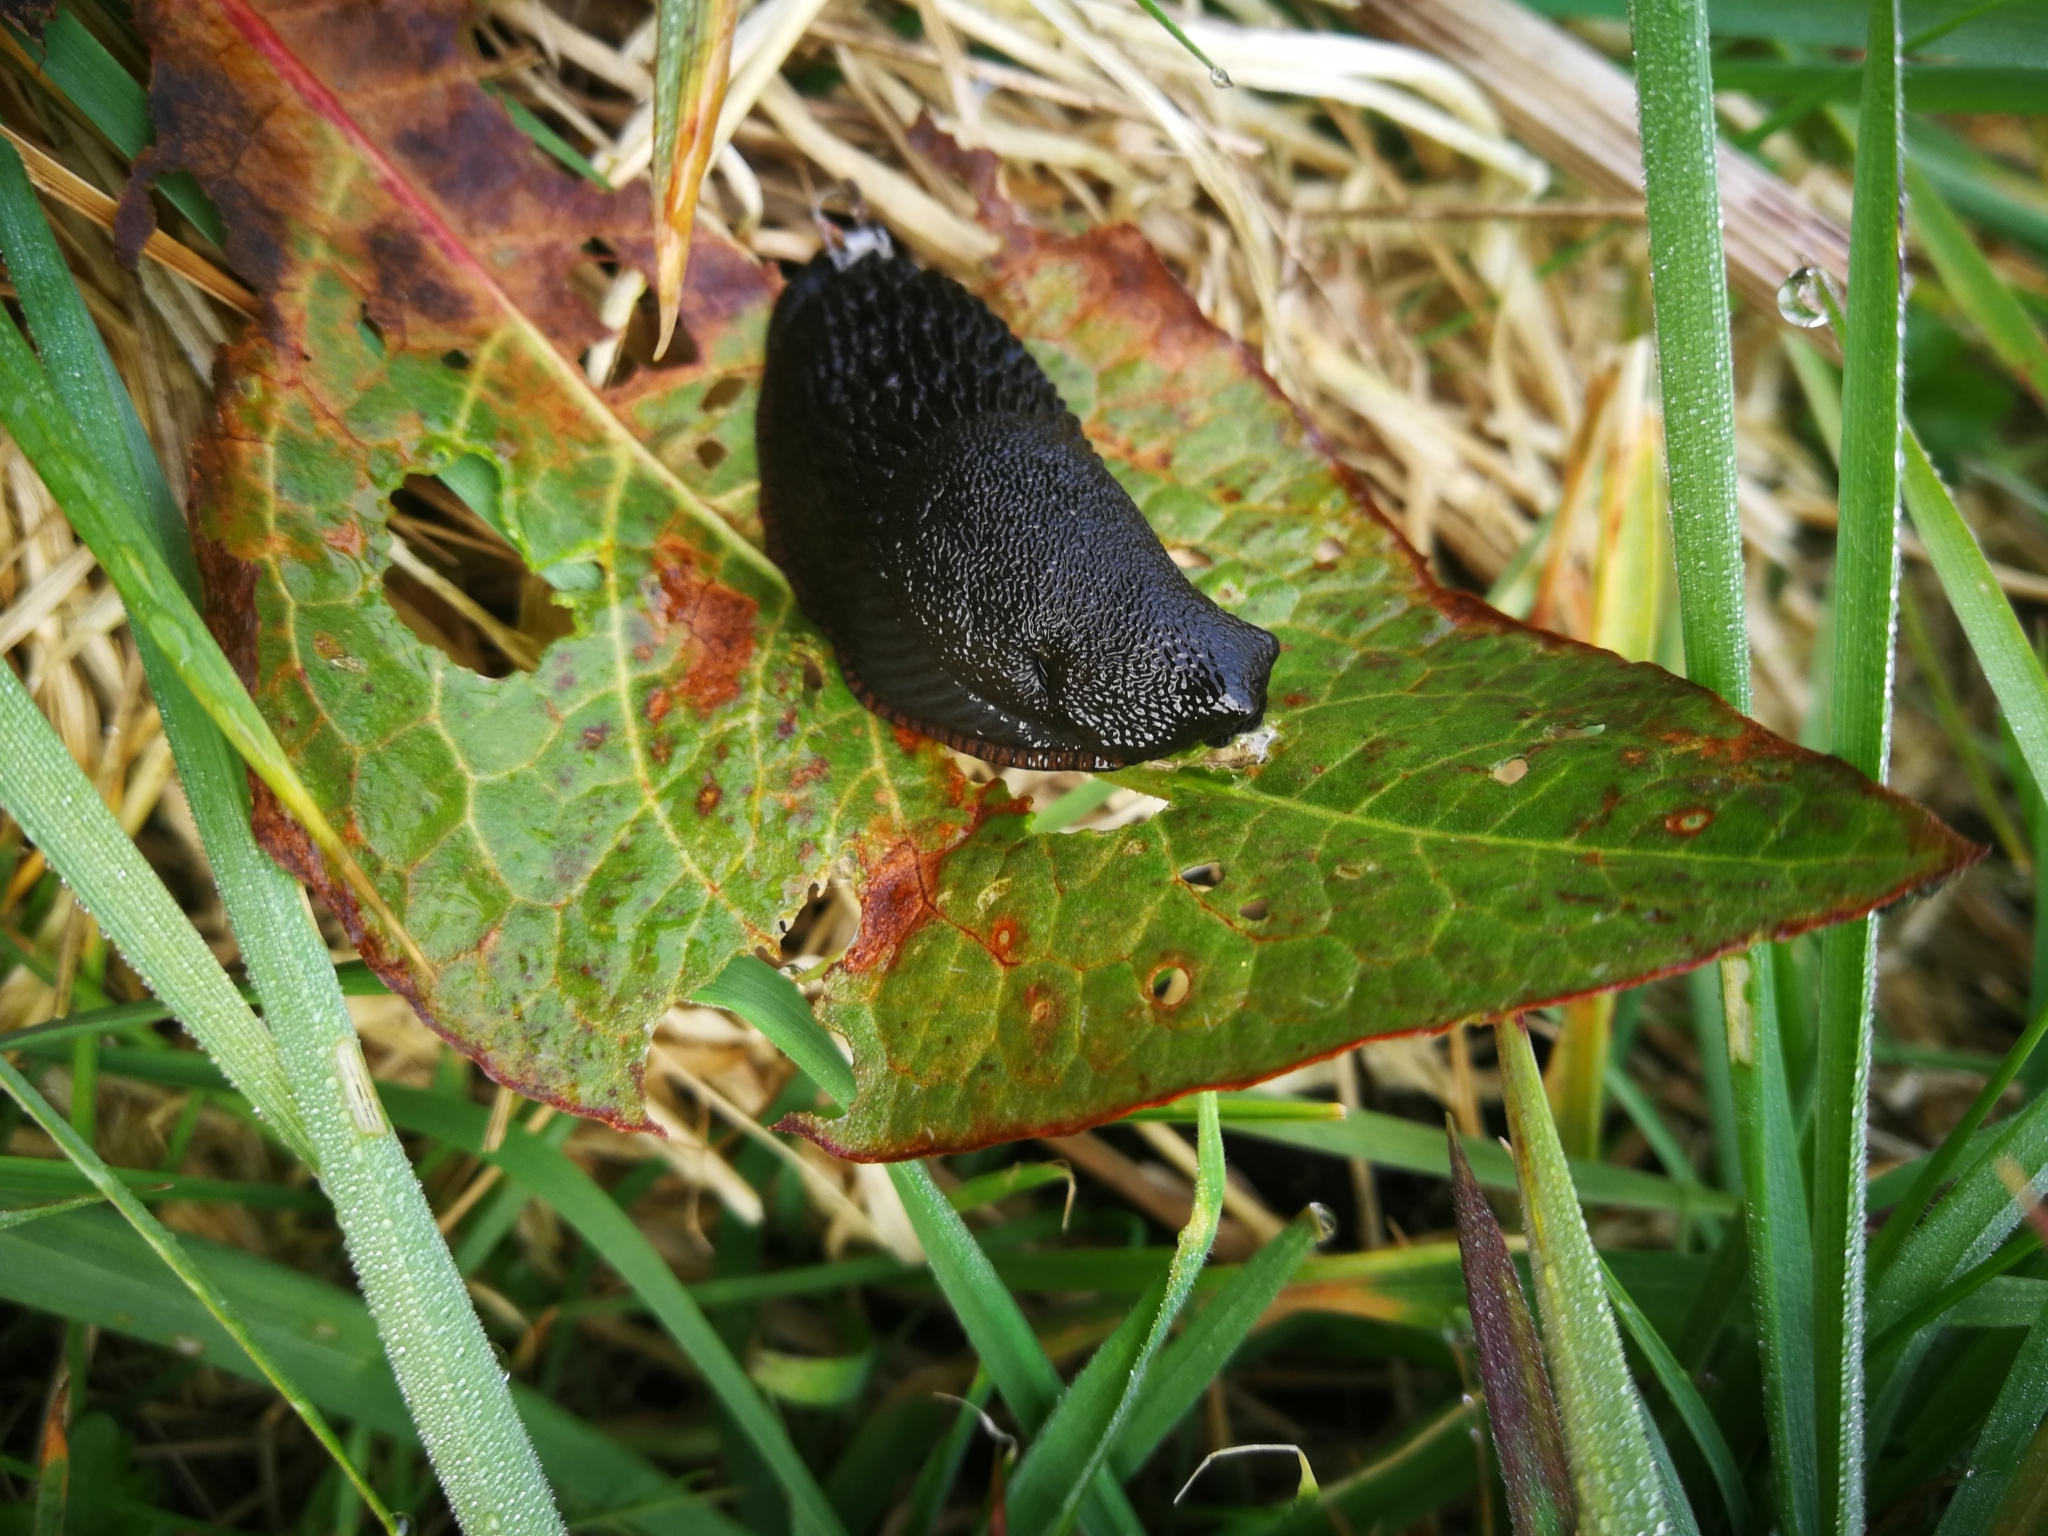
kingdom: Animalia
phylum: Mollusca
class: Gastropoda
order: Stylommatophora
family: Arionidae
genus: Arion
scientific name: Arion ater
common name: Black arion
